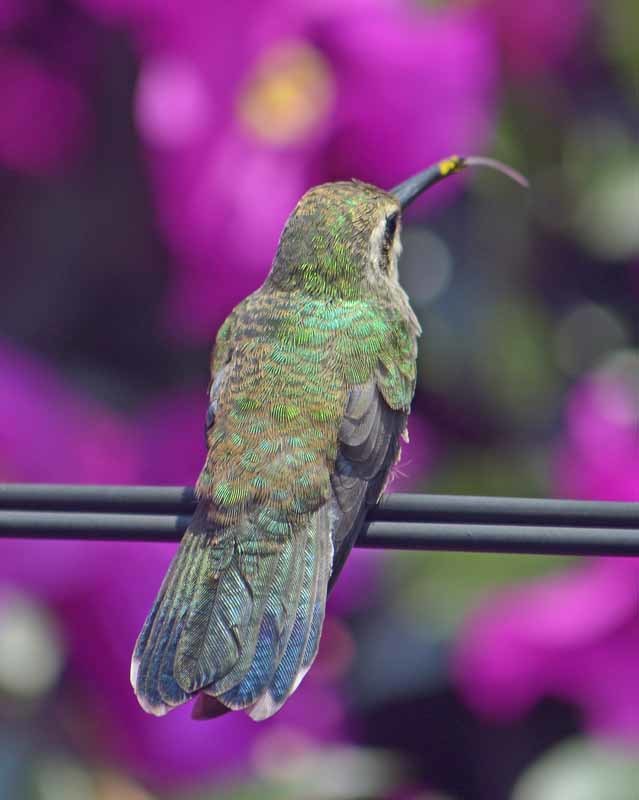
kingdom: Animalia
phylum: Chordata
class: Aves
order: Apodiformes
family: Trochilidae
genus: Cynanthus
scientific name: Cynanthus latirostris
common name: Broad-billed hummingbird
